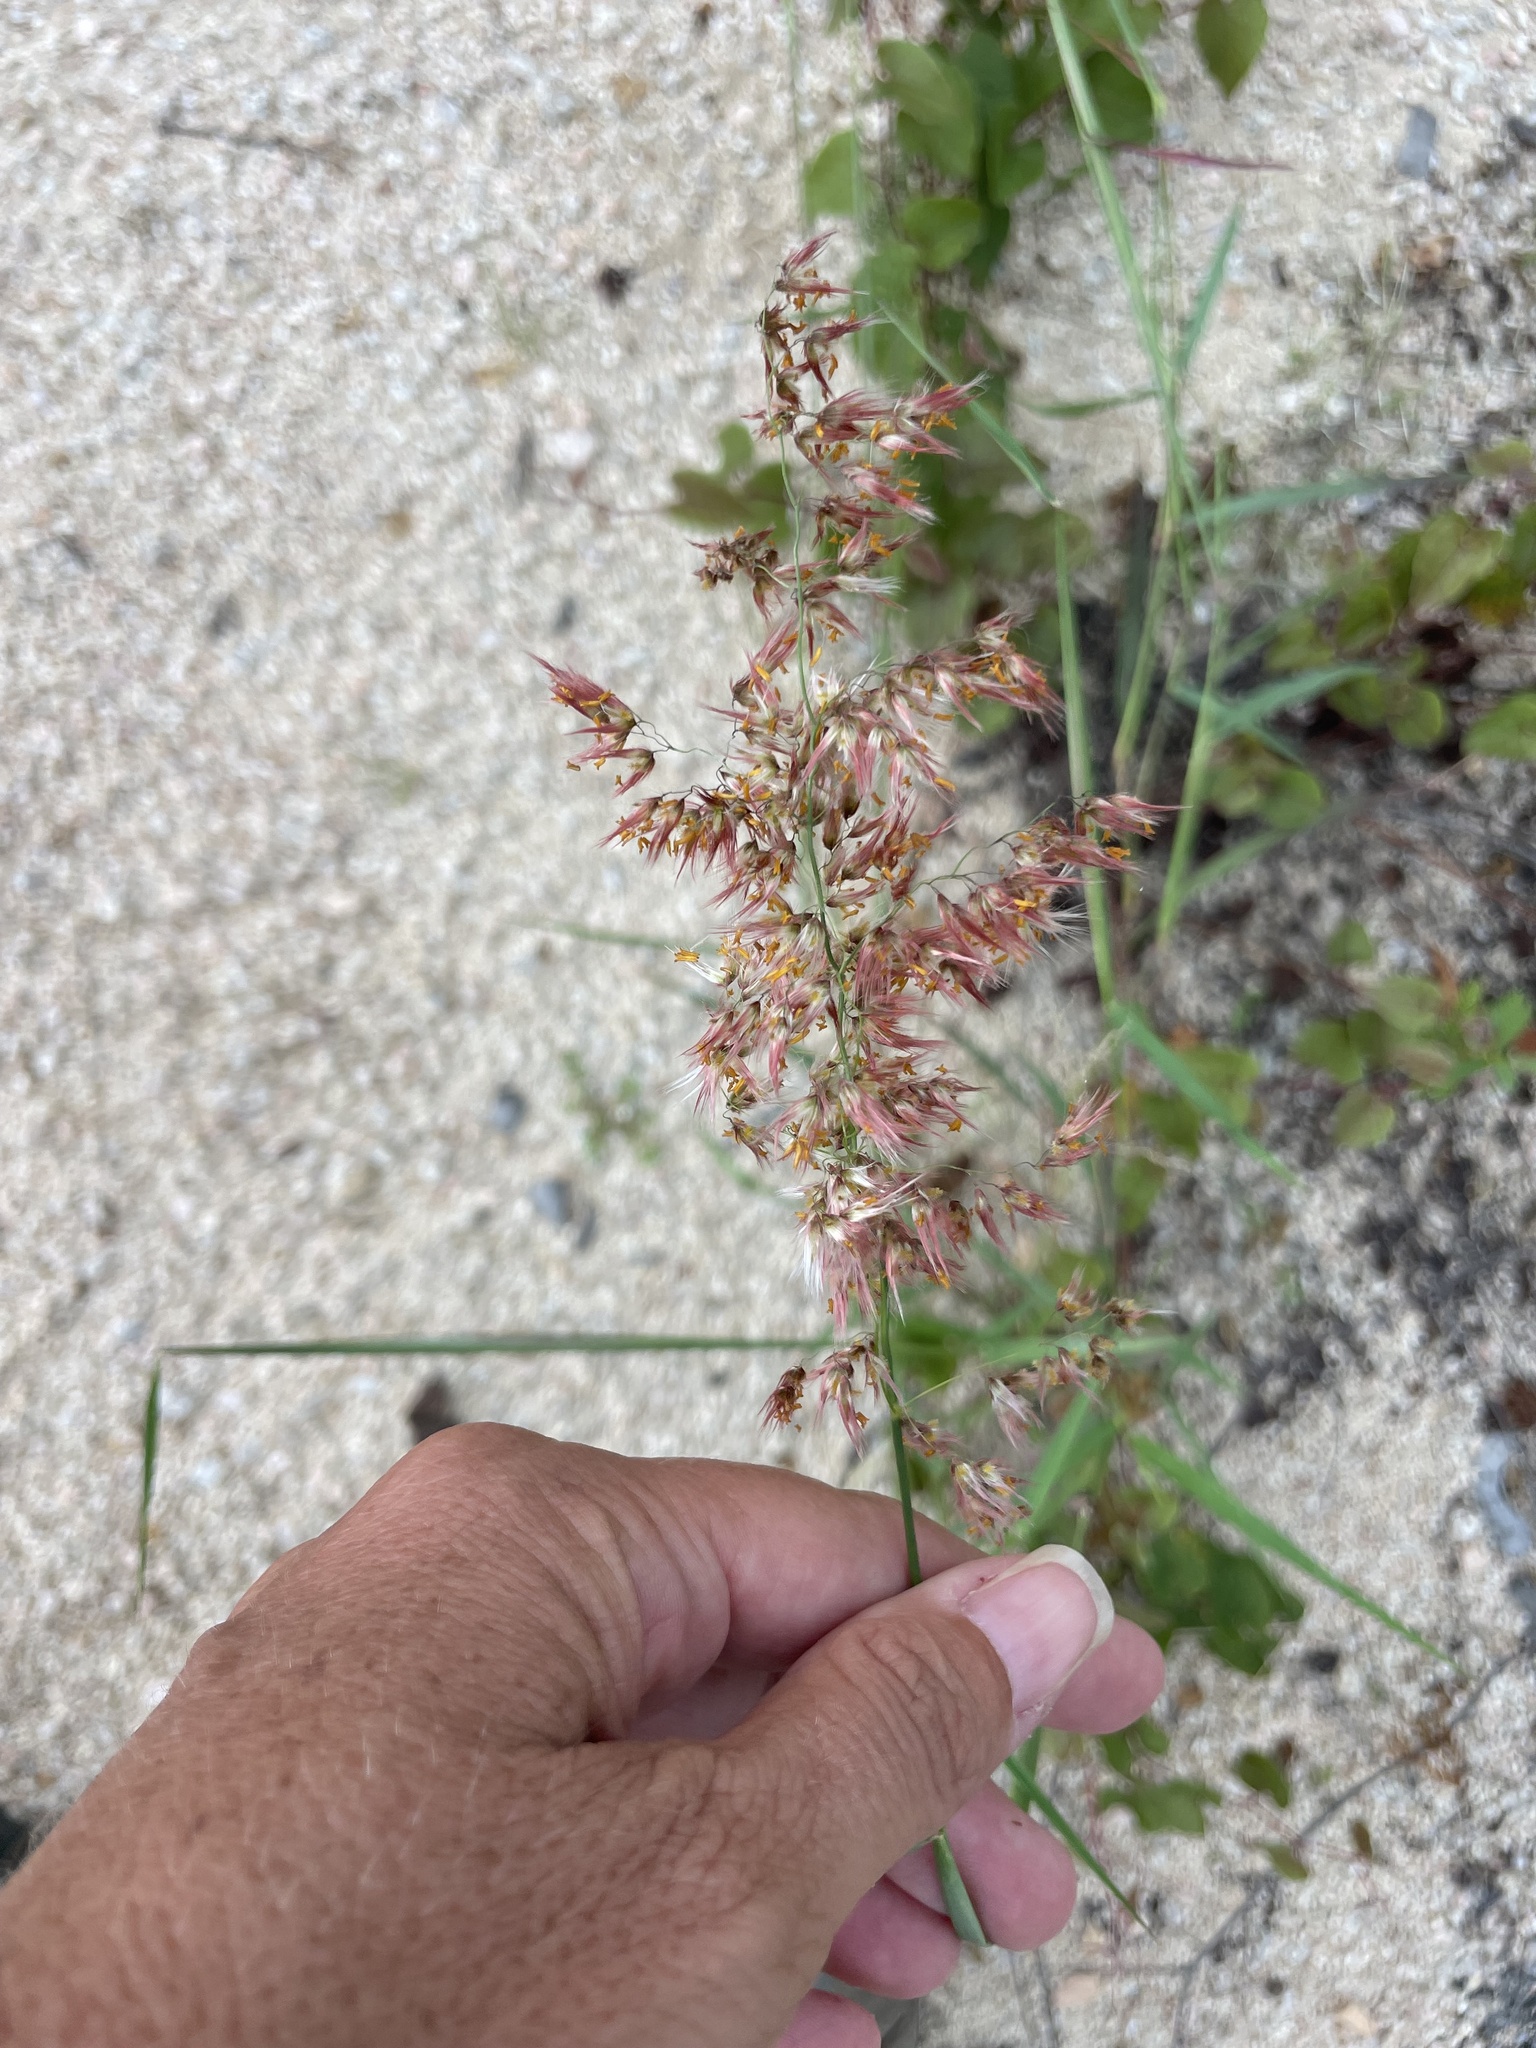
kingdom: Plantae
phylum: Tracheophyta
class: Liliopsida
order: Poales
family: Poaceae
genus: Melinis
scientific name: Melinis repens
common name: Rose natal grass
